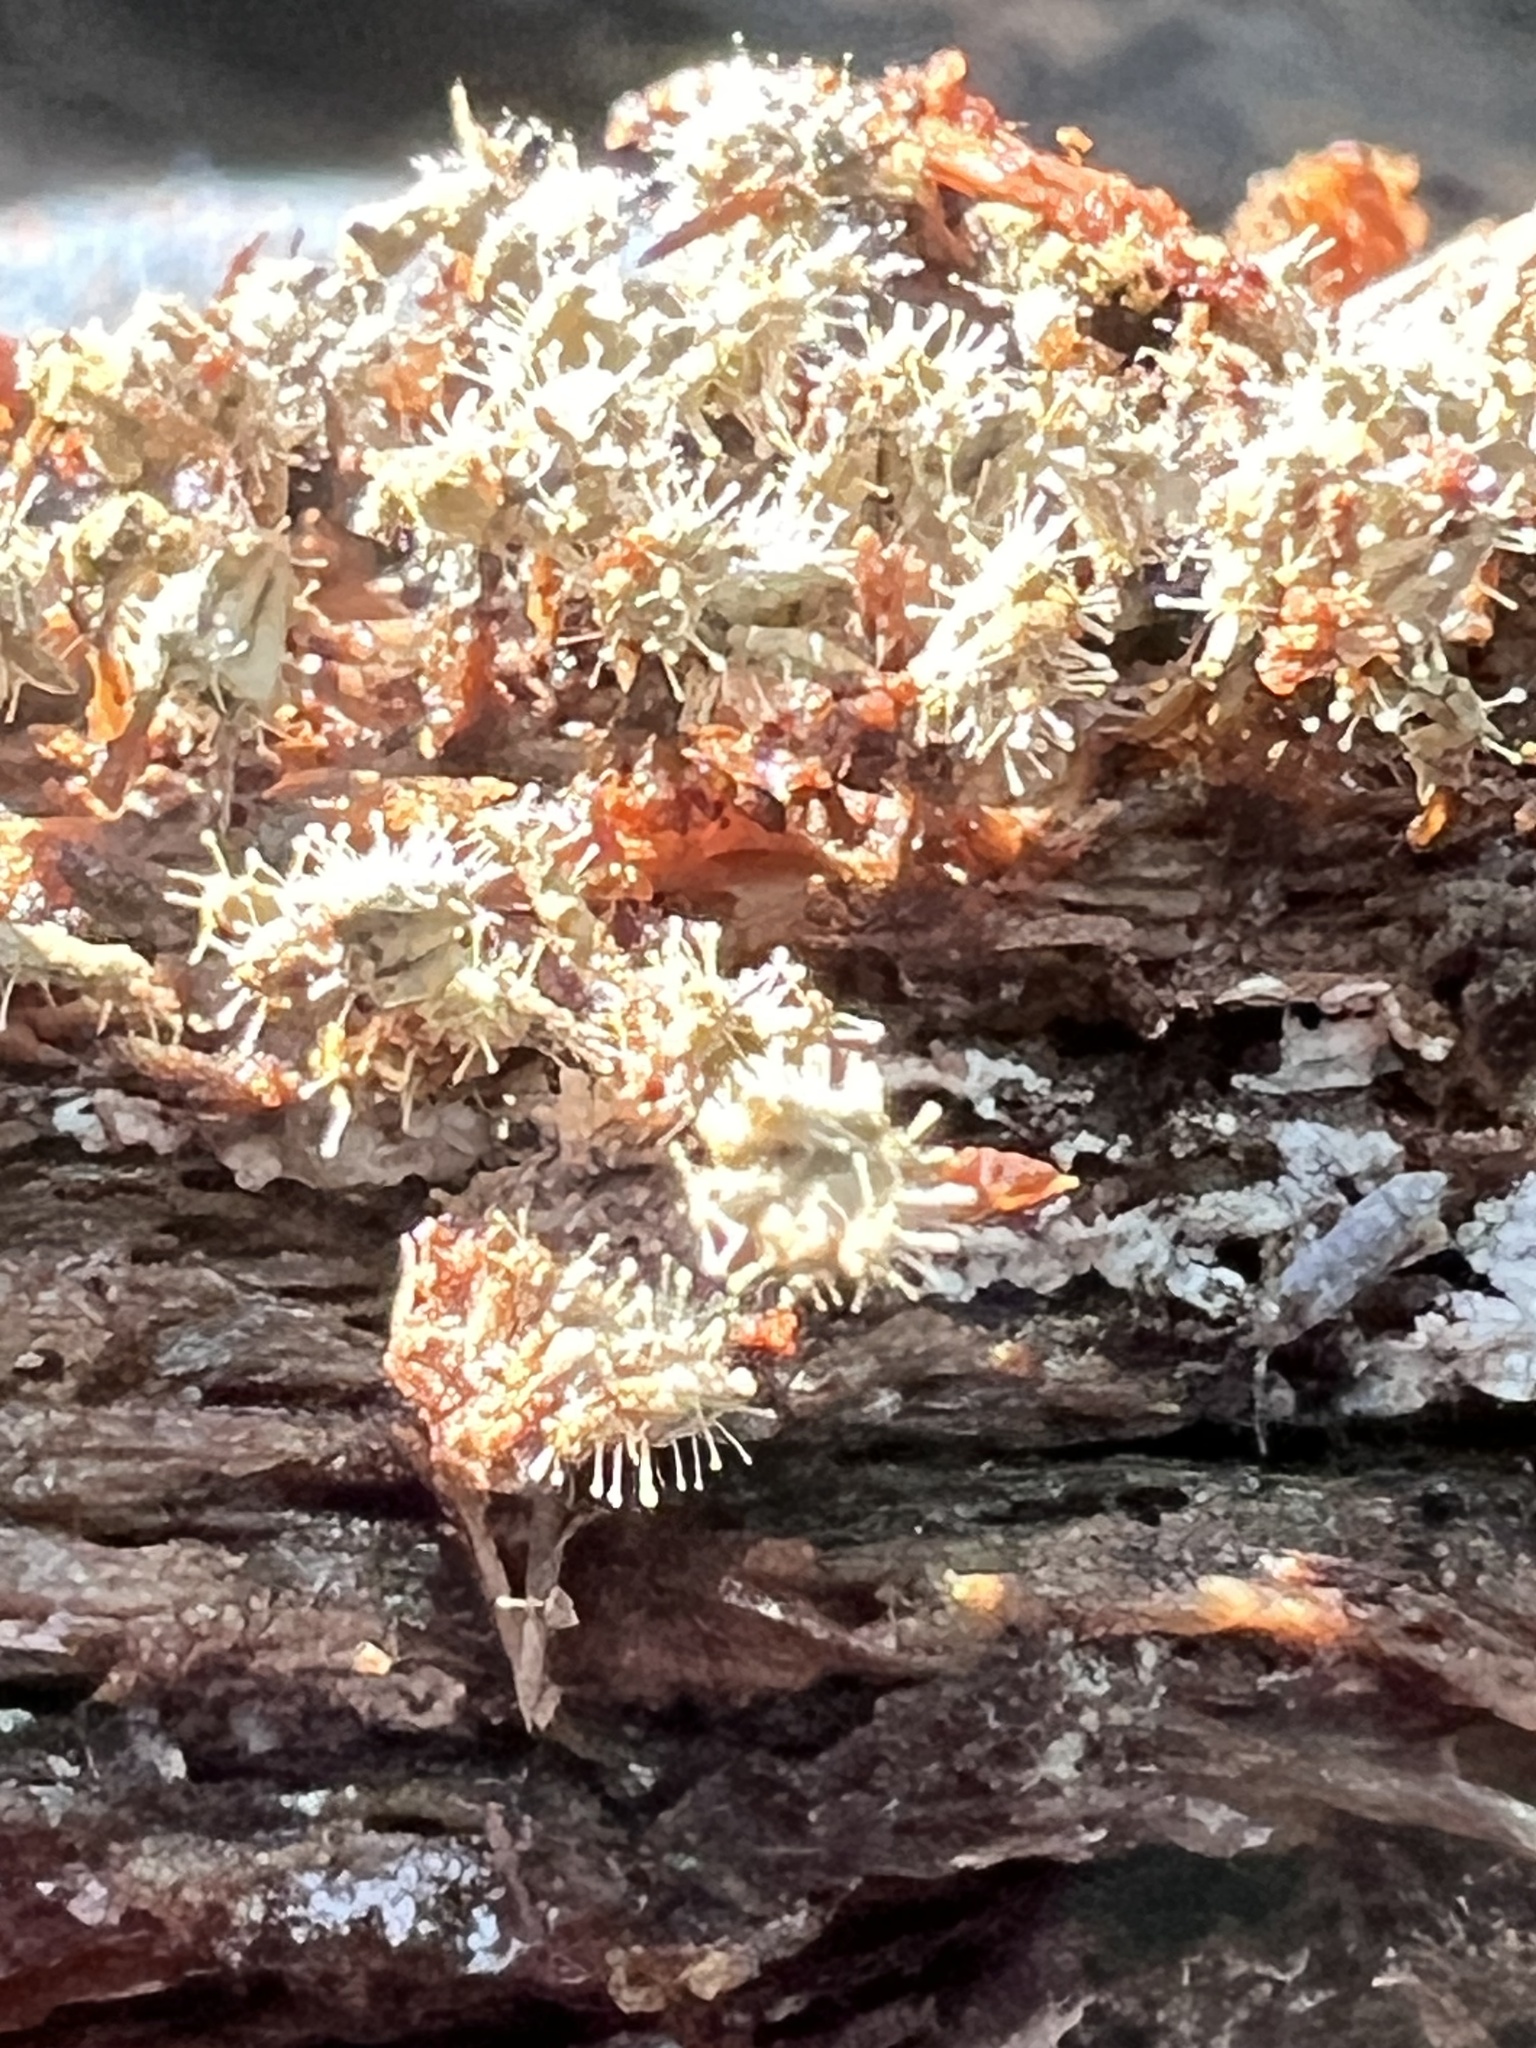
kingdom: Fungi
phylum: Ascomycota
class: Sordariomycetes
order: Hypocreales
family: Ophiocordycipitaceae
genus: Polycephalomyces
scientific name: Polycephalomyces tomentosus
